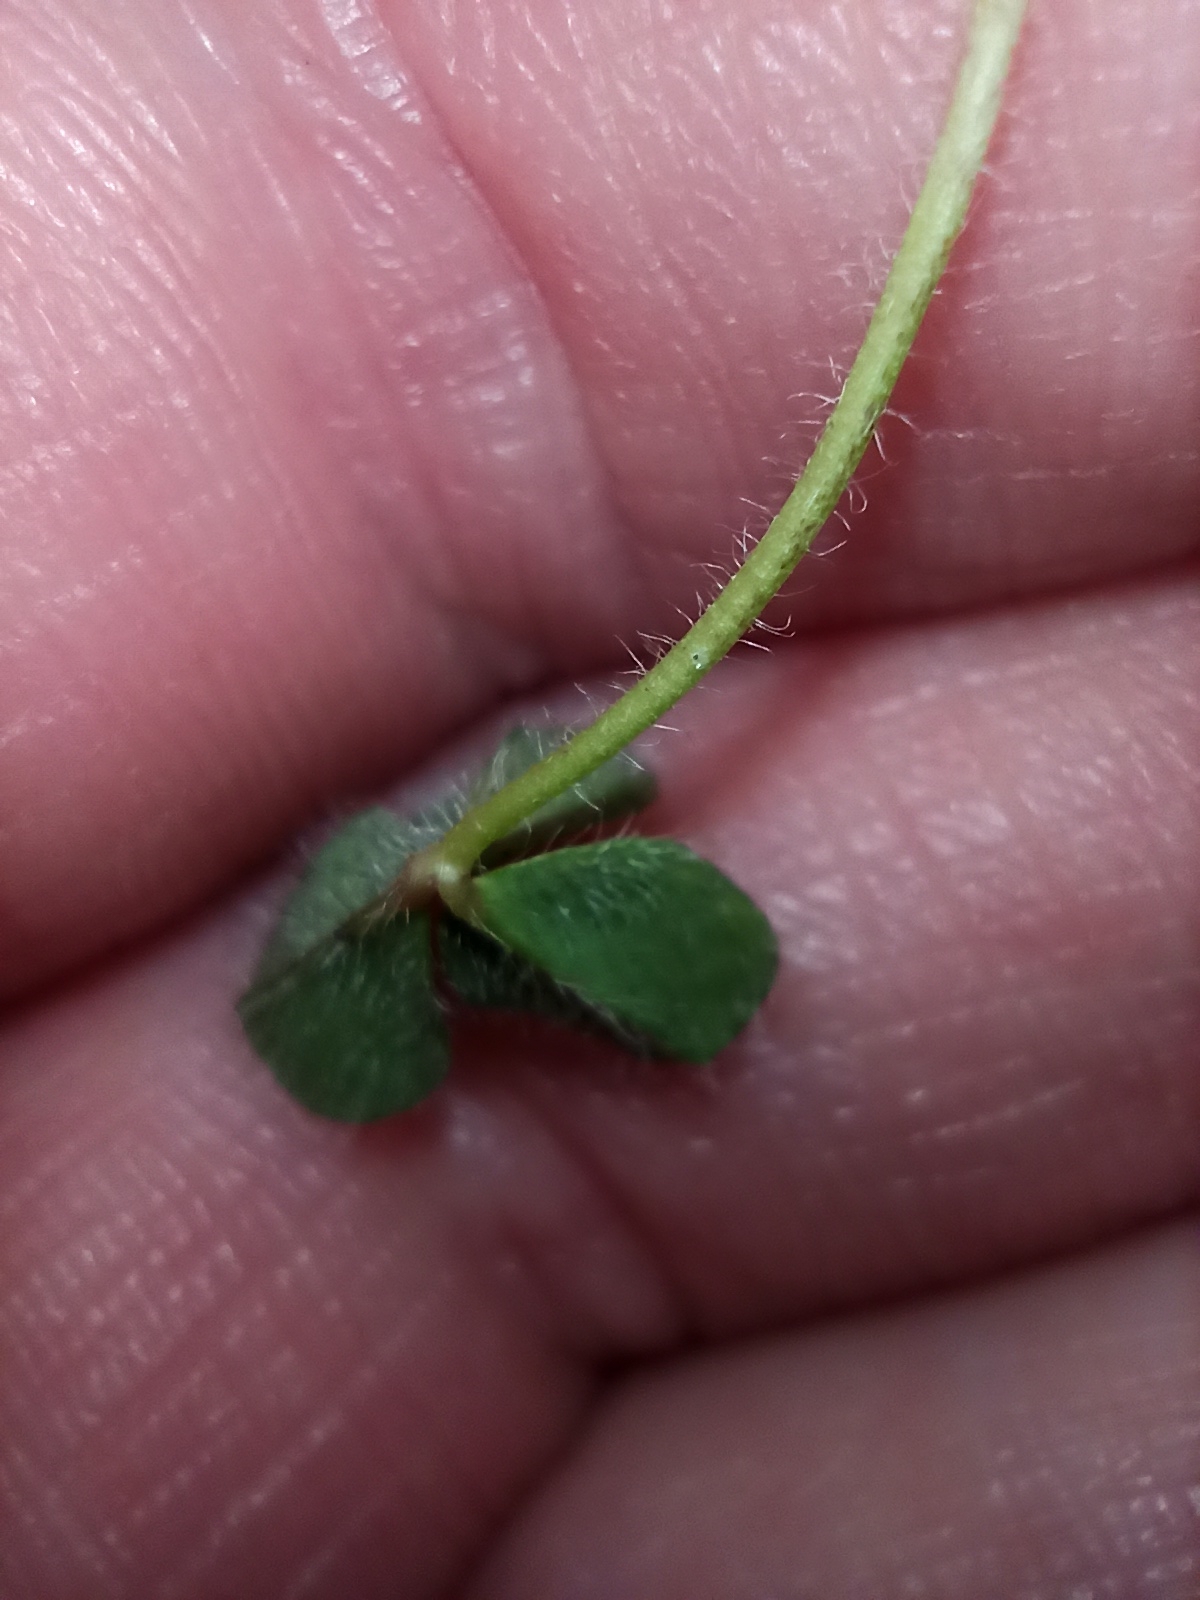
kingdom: Plantae
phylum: Tracheophyta
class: Magnoliopsida
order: Fabales
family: Fabaceae
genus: Trifolium
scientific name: Trifolium fragiferum
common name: Strawberry clover
